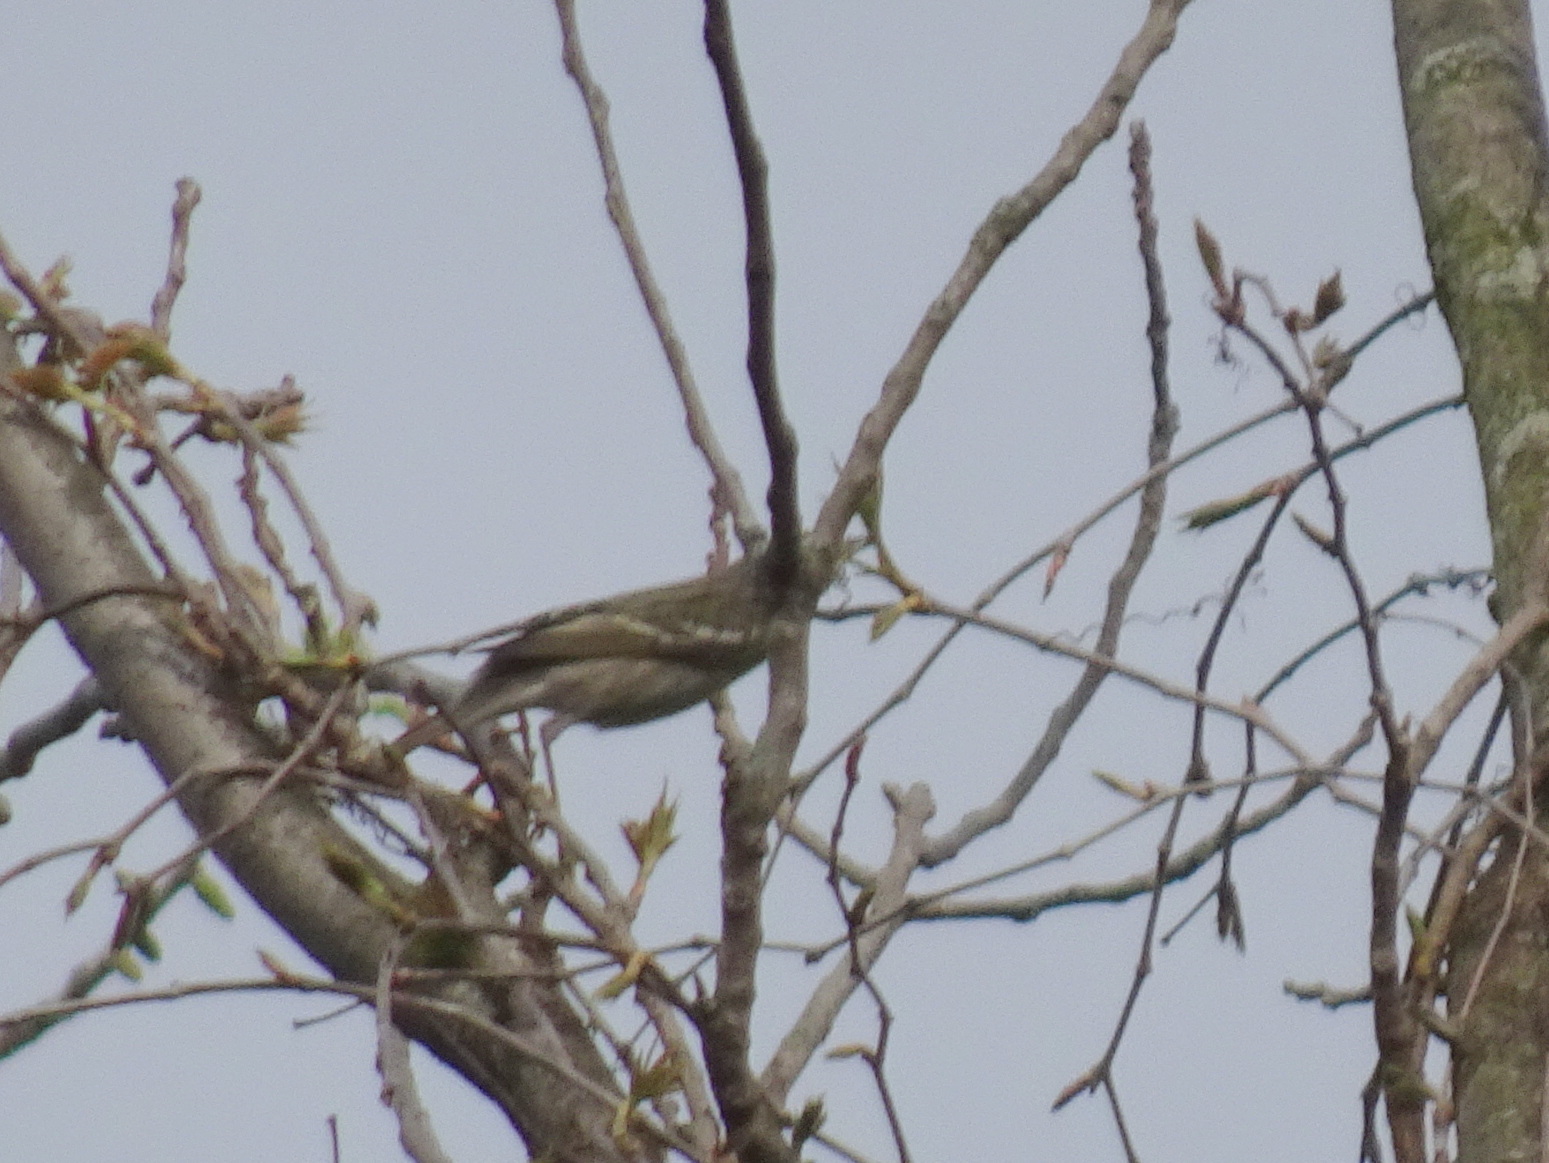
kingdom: Animalia
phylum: Chordata
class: Aves
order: Passeriformes
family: Parulidae
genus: Setophaga
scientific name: Setophaga striata
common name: Blackpoll warbler
